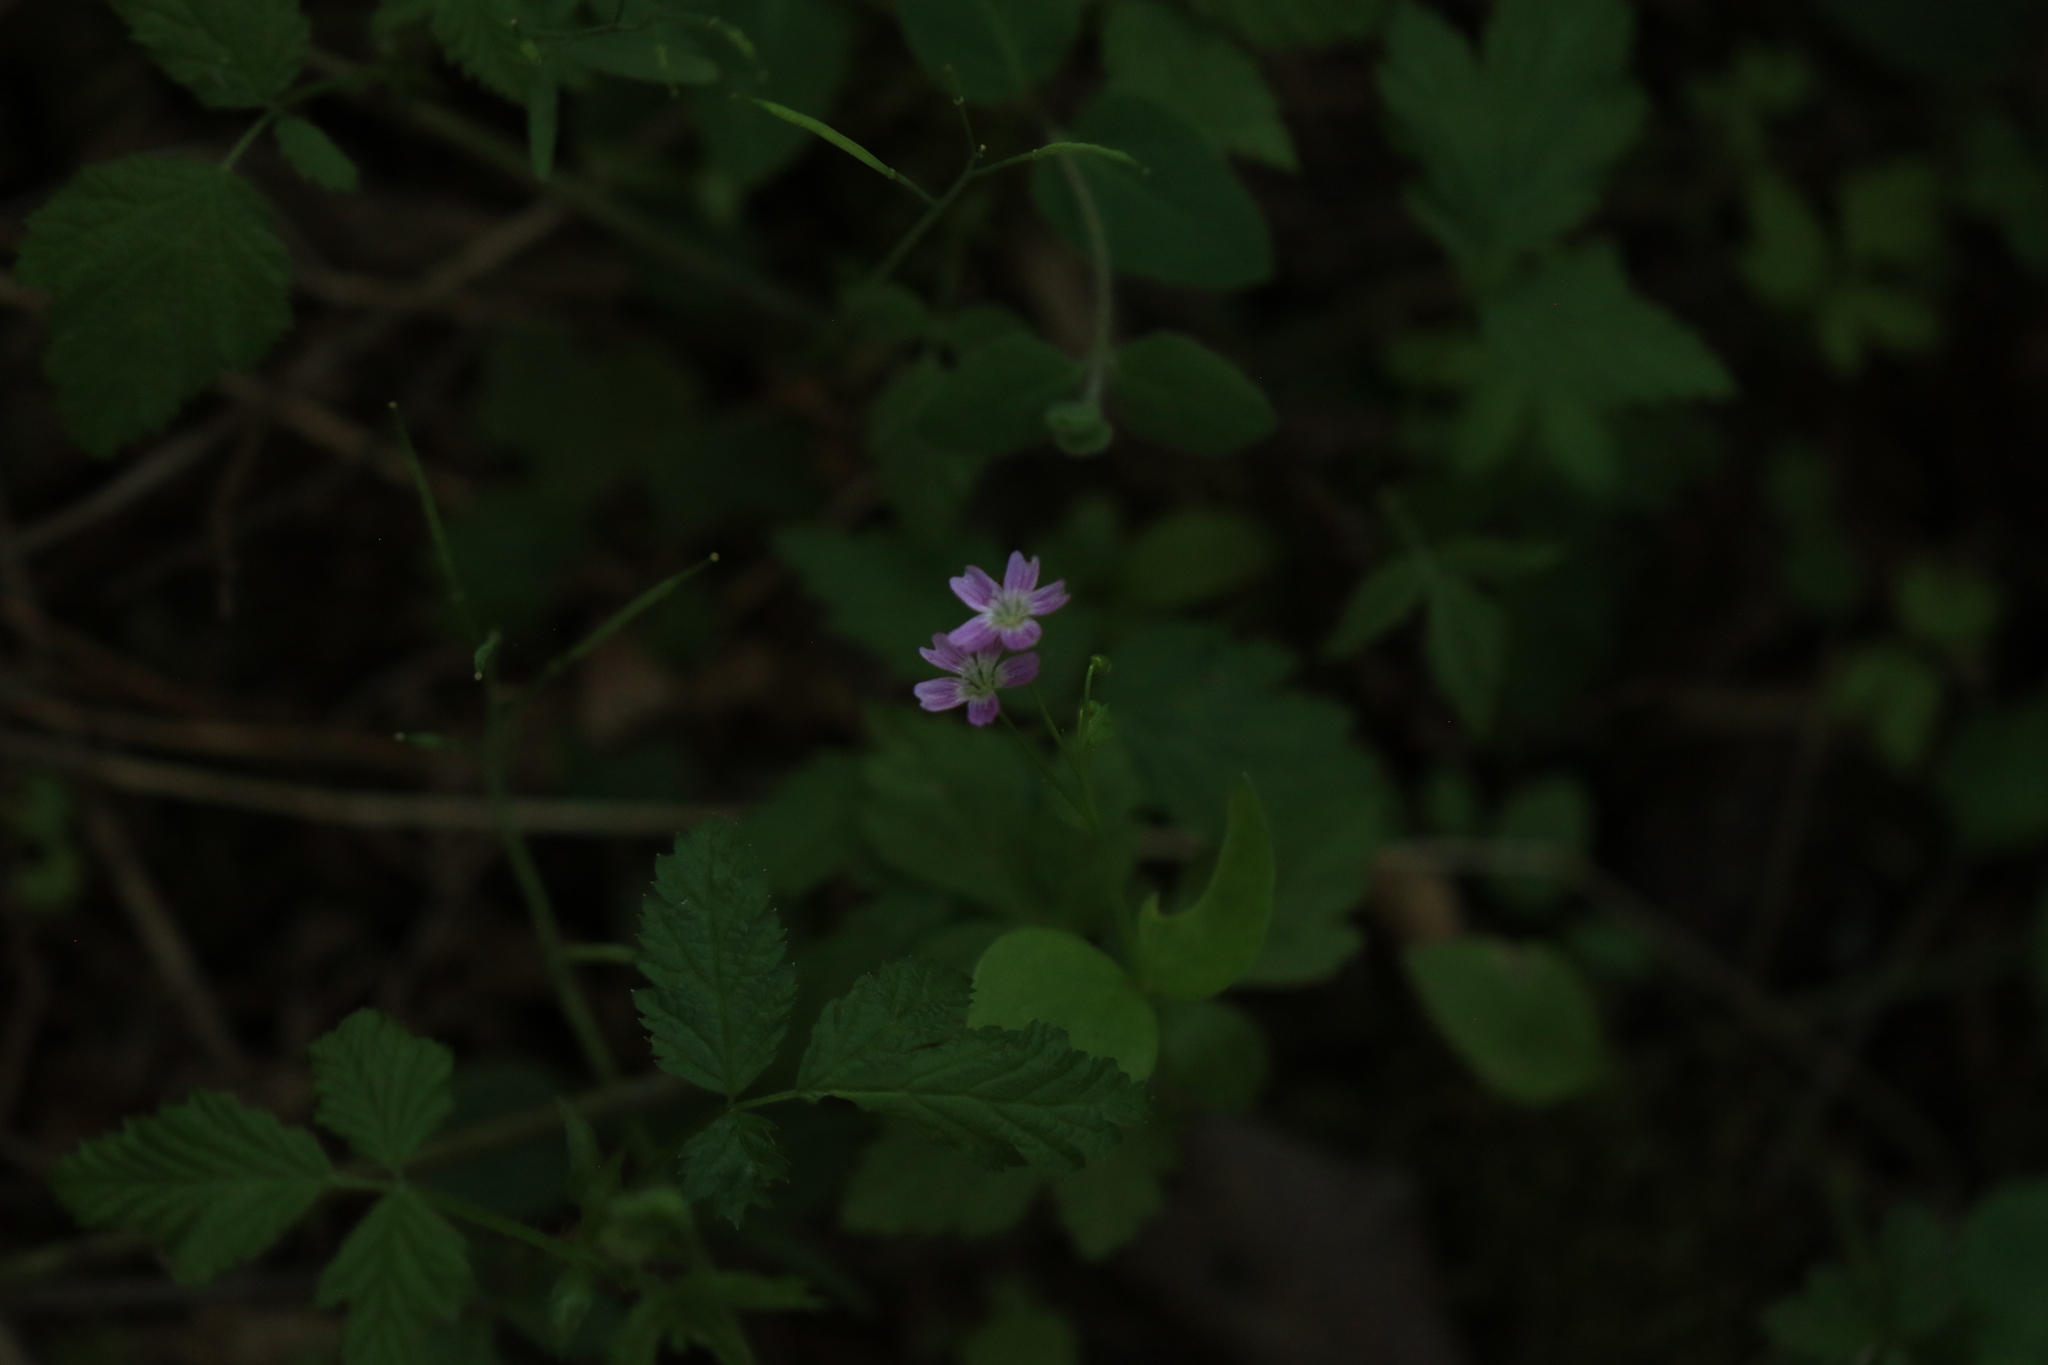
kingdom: Plantae
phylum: Tracheophyta
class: Magnoliopsida
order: Caryophyllales
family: Montiaceae
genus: Claytonia
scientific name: Claytonia sibirica
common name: Pink purslane
